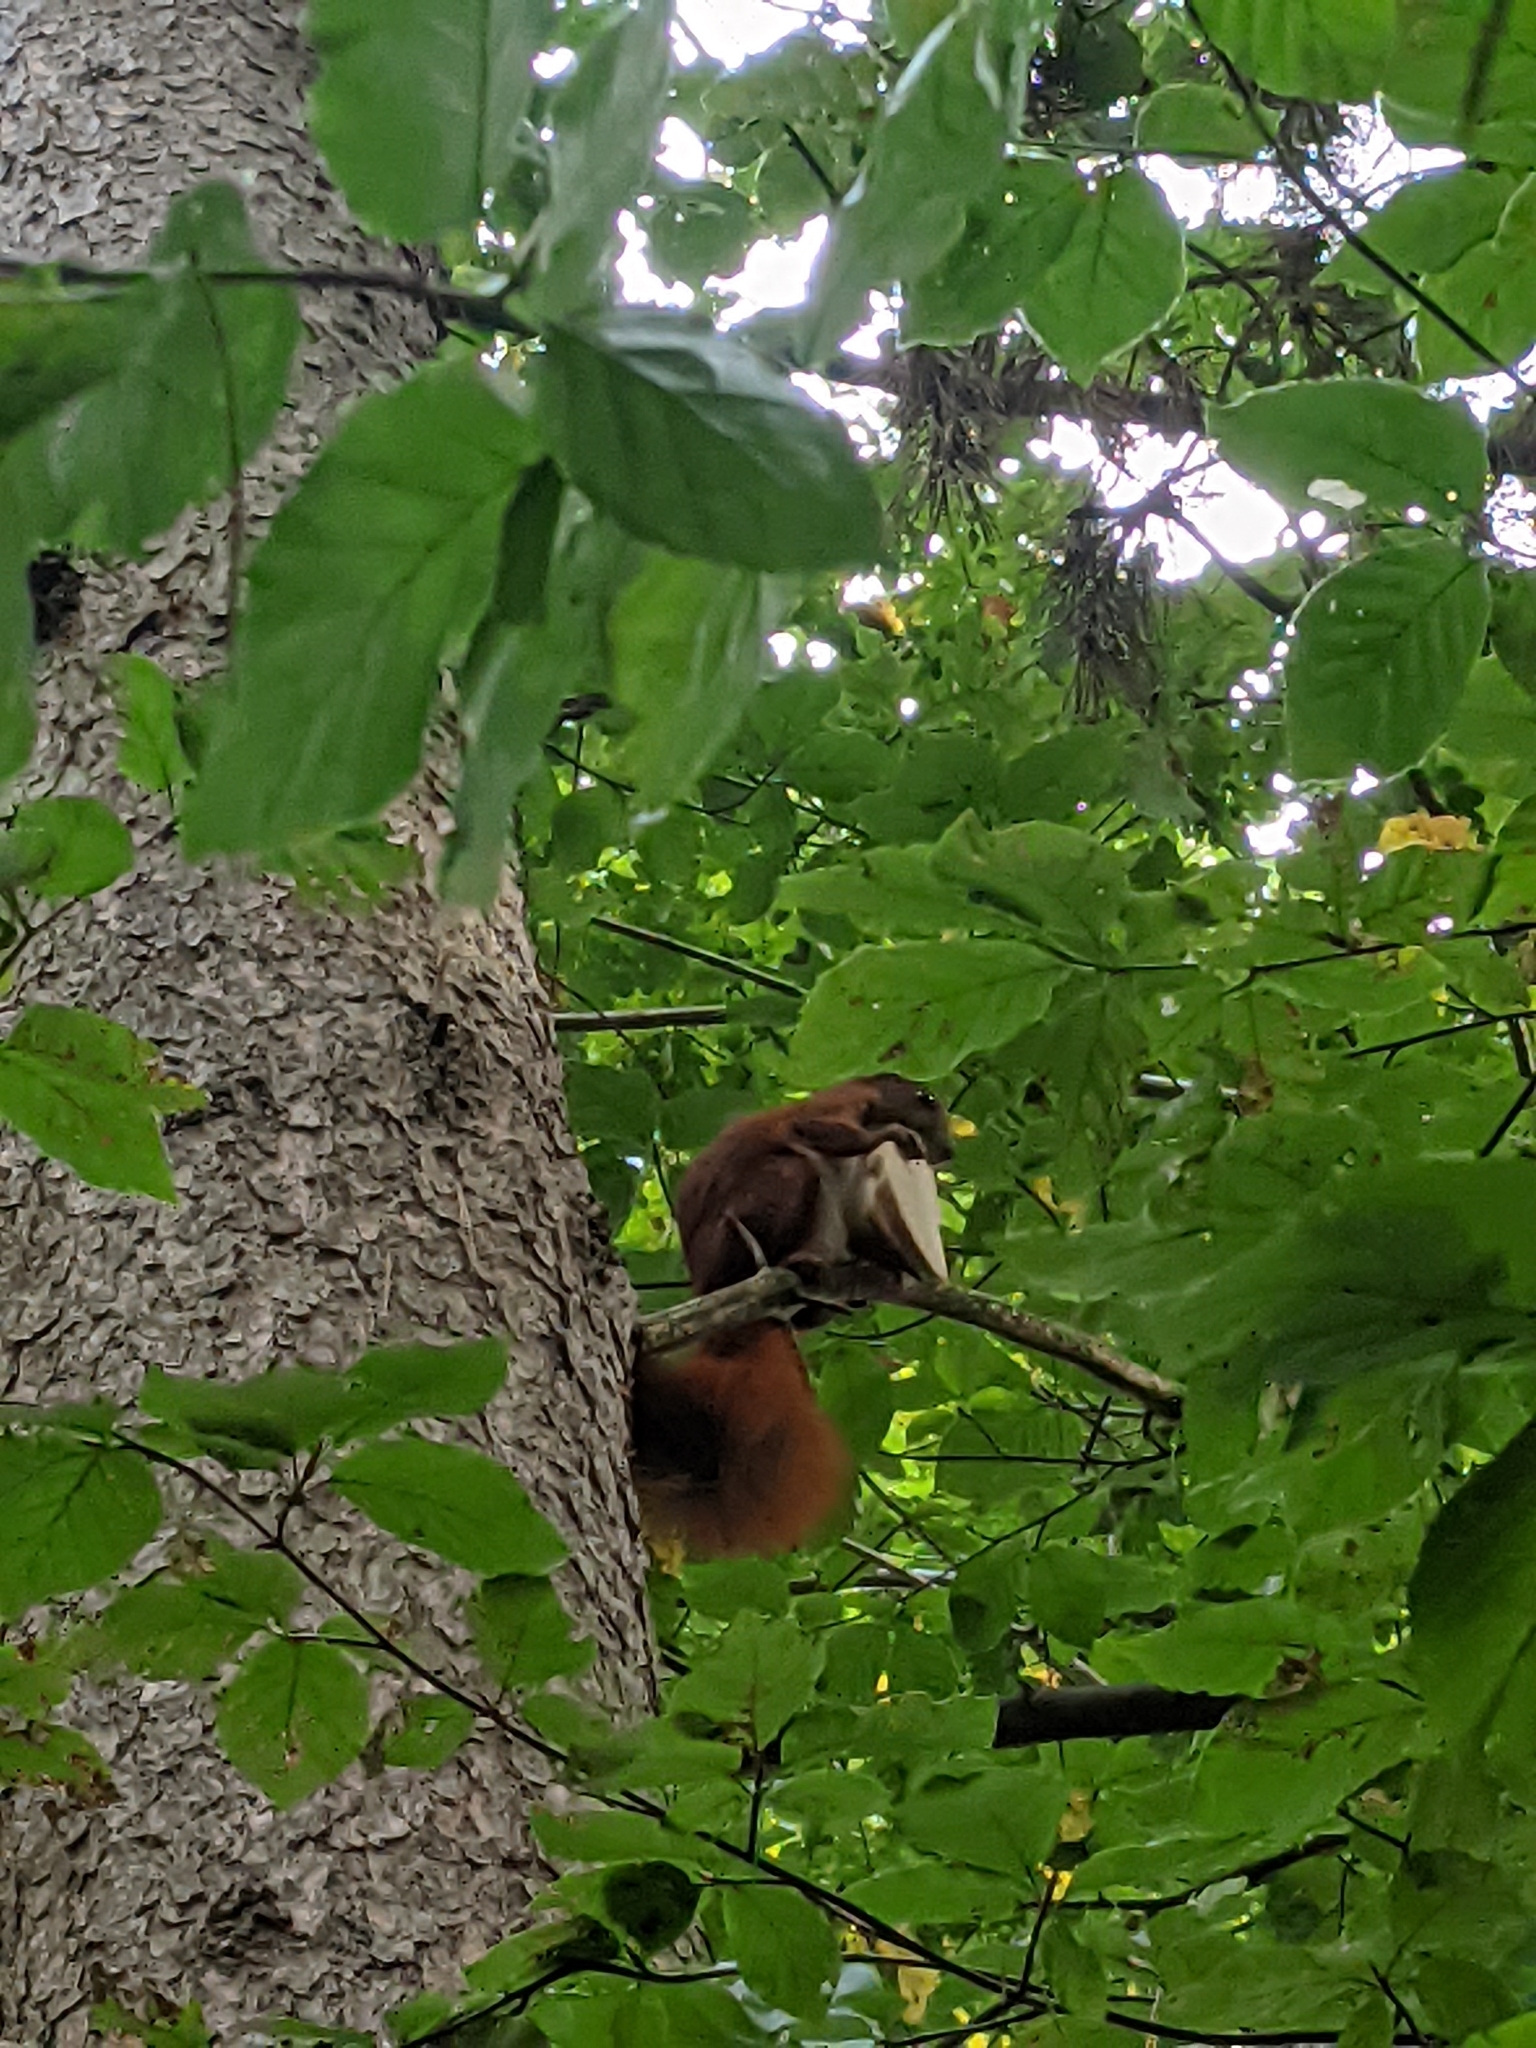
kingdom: Animalia
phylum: Chordata
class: Mammalia
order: Rodentia
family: Sciuridae
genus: Sciurus
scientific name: Sciurus vulgaris
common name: Eurasian red squirrel
